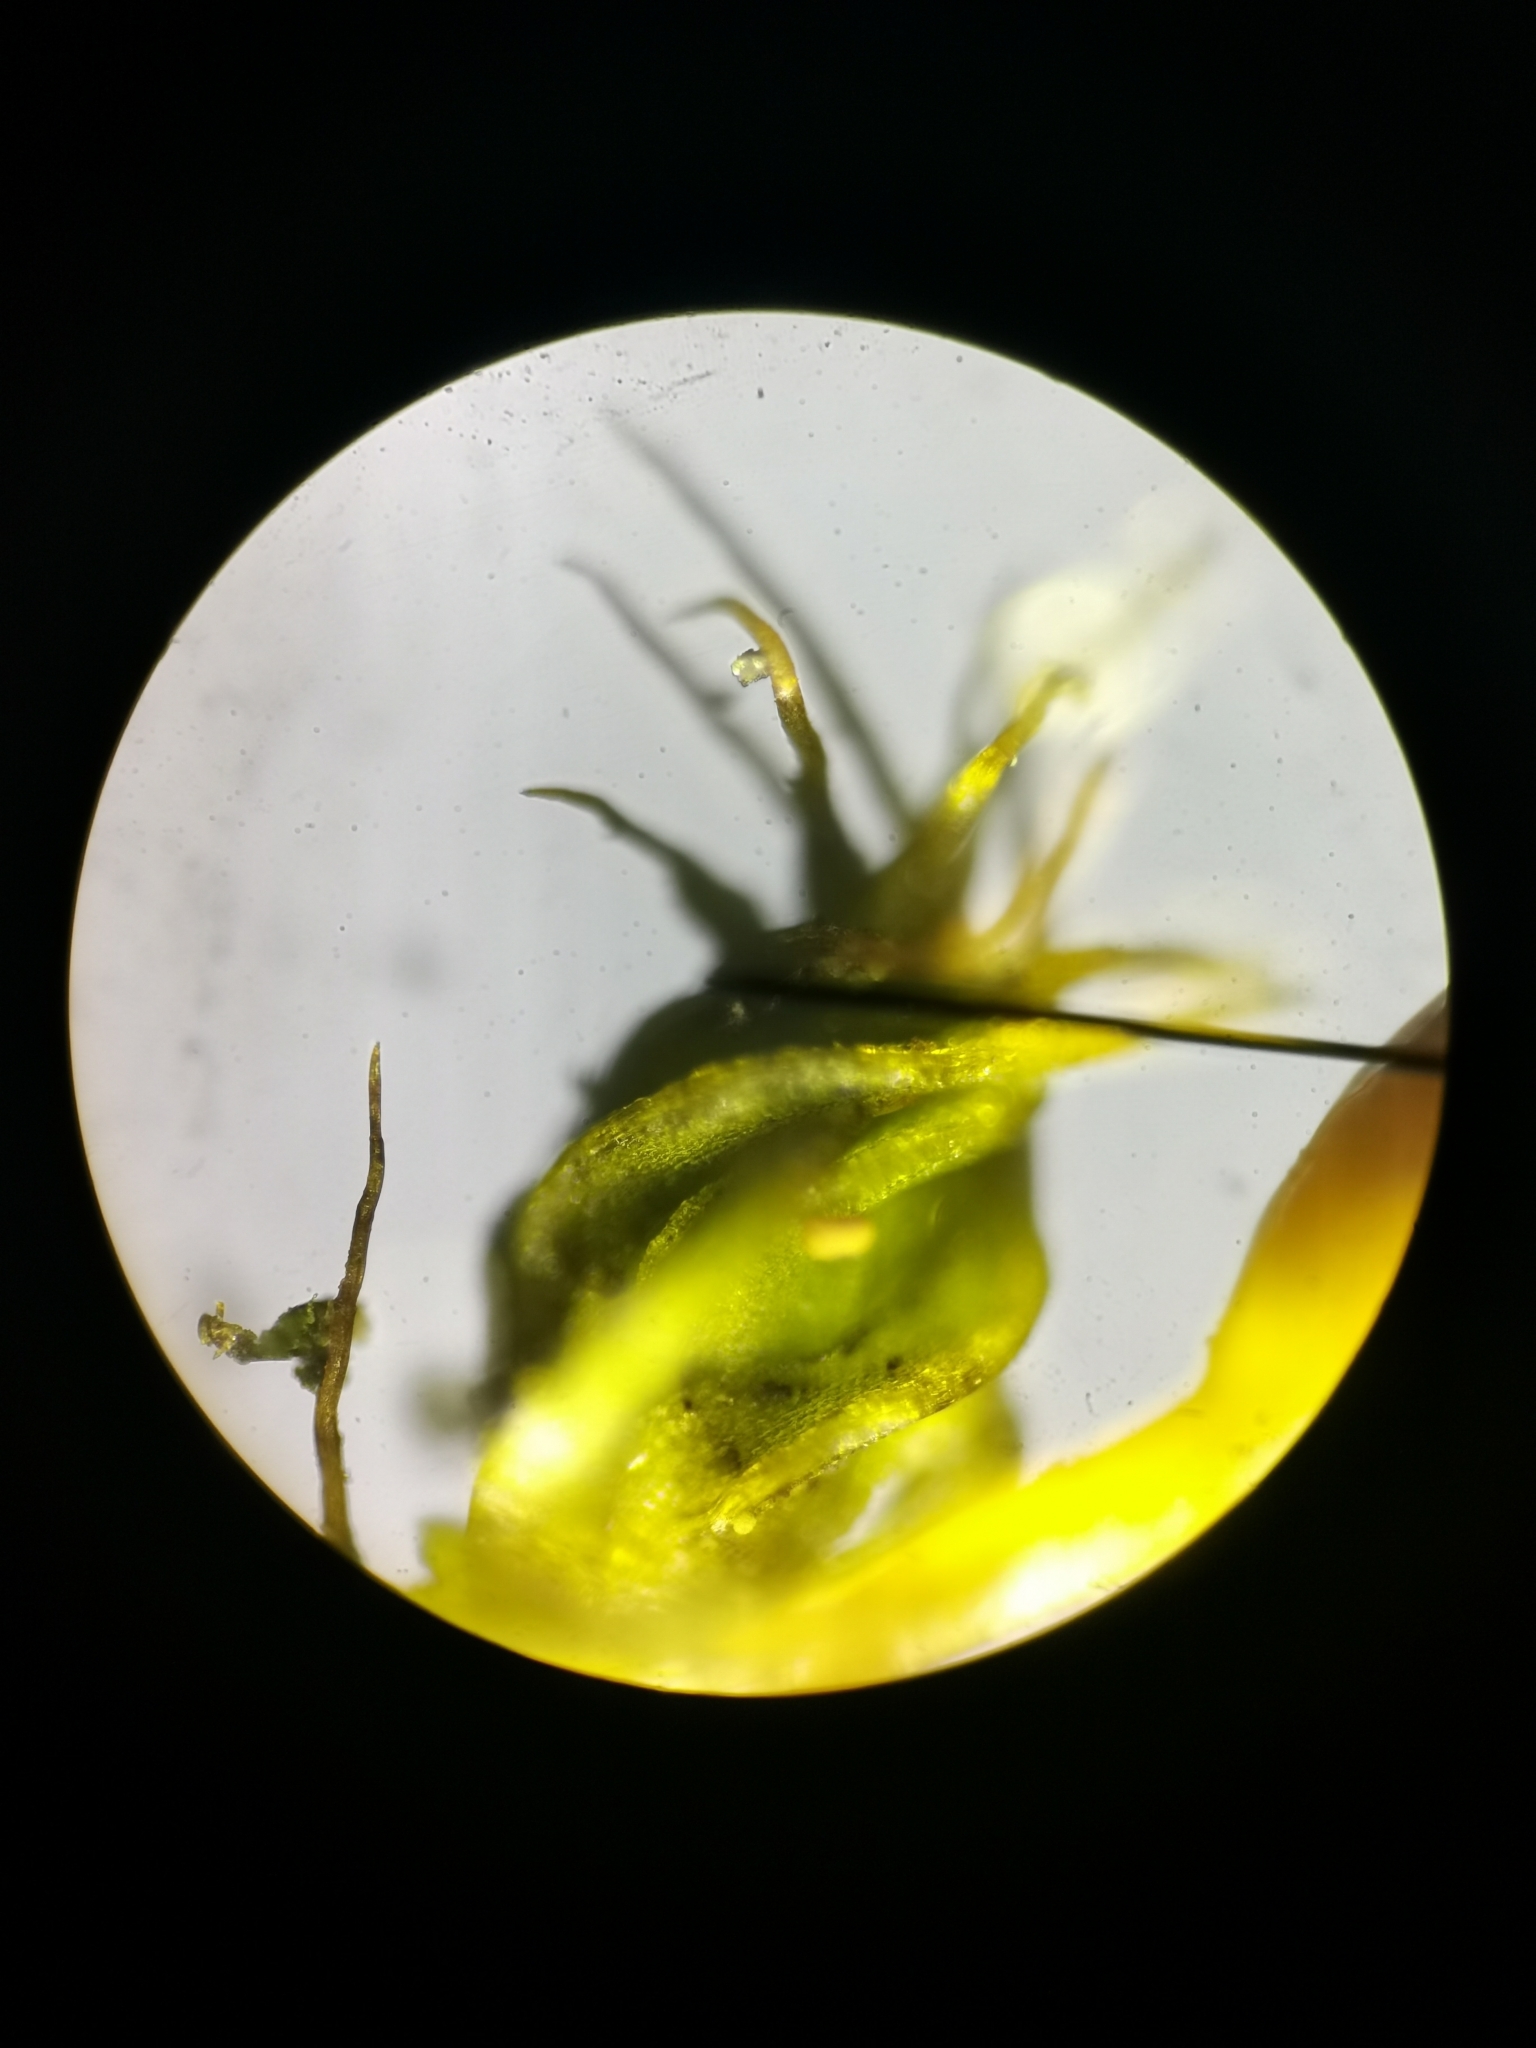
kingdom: Plantae
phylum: Bryophyta
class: Bryopsida
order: Pottiales
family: Pottiaceae
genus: Tortula
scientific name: Tortula protobryoides
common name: Tall pottia
